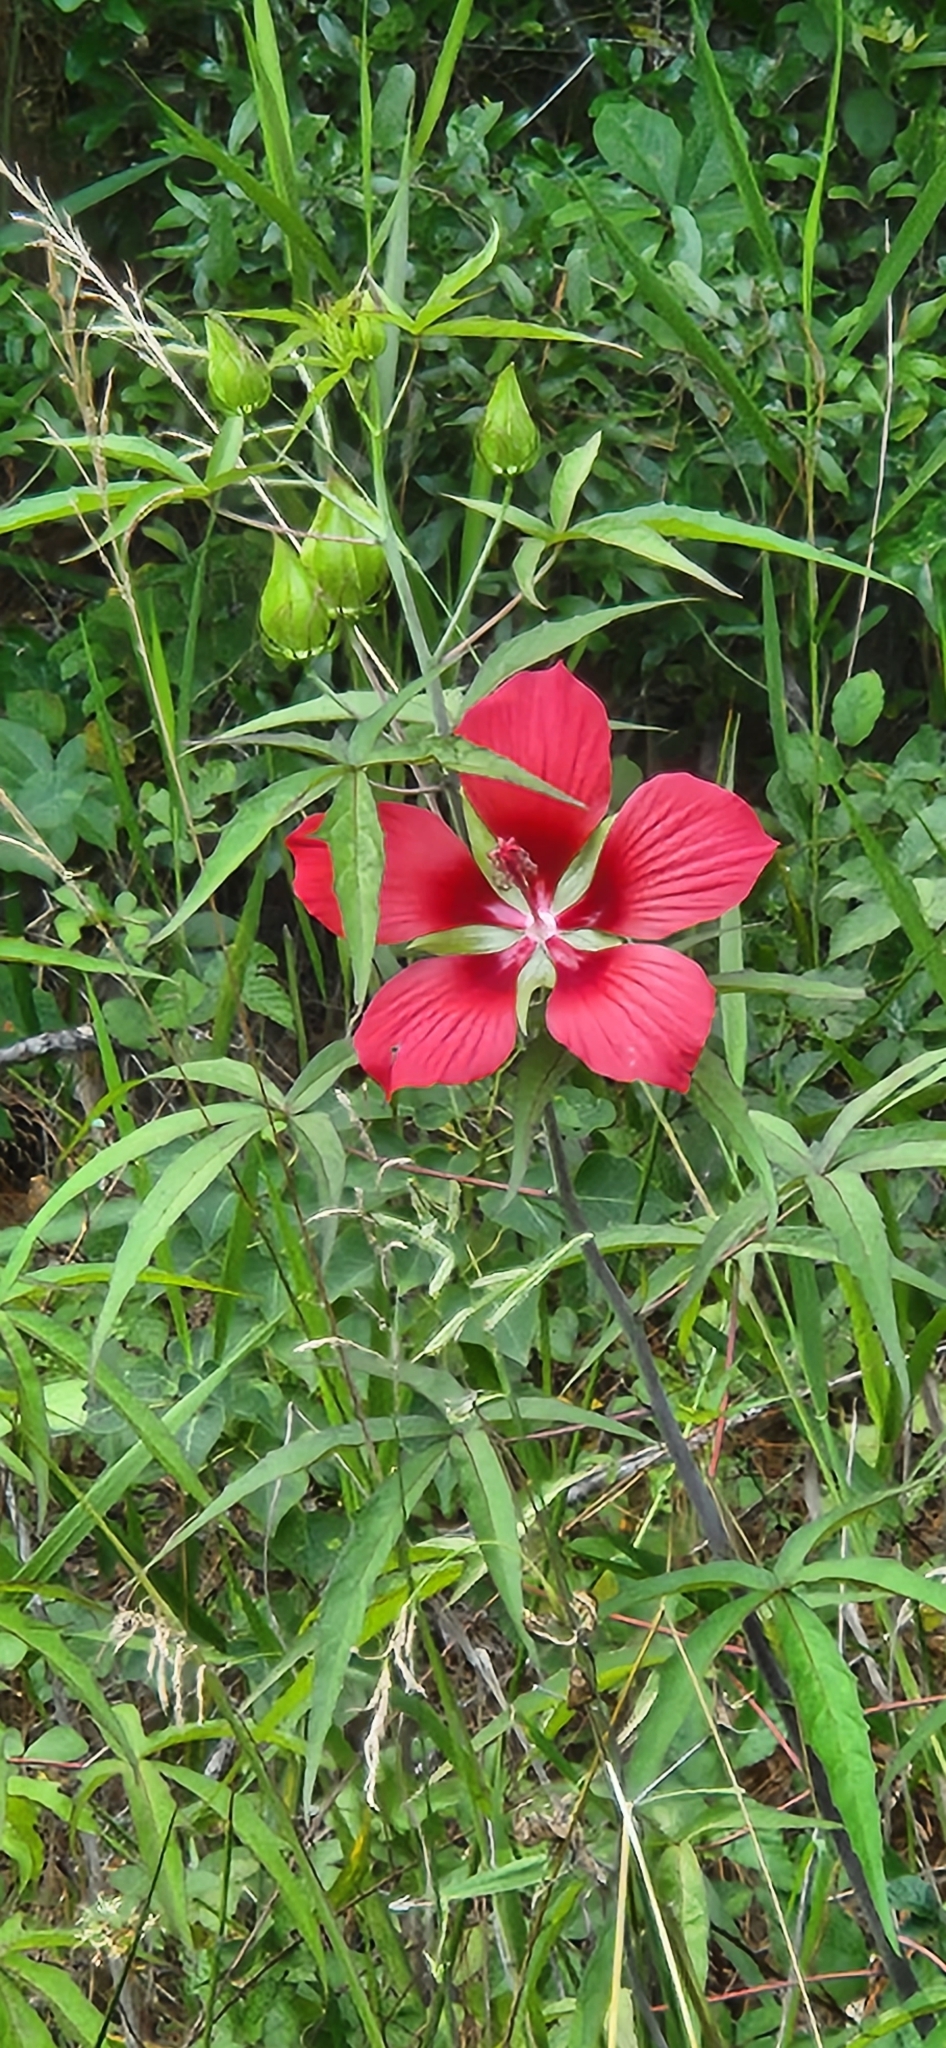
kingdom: Plantae
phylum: Tracheophyta
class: Magnoliopsida
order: Malvales
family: Malvaceae
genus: Hibiscus
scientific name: Hibiscus coccineus
